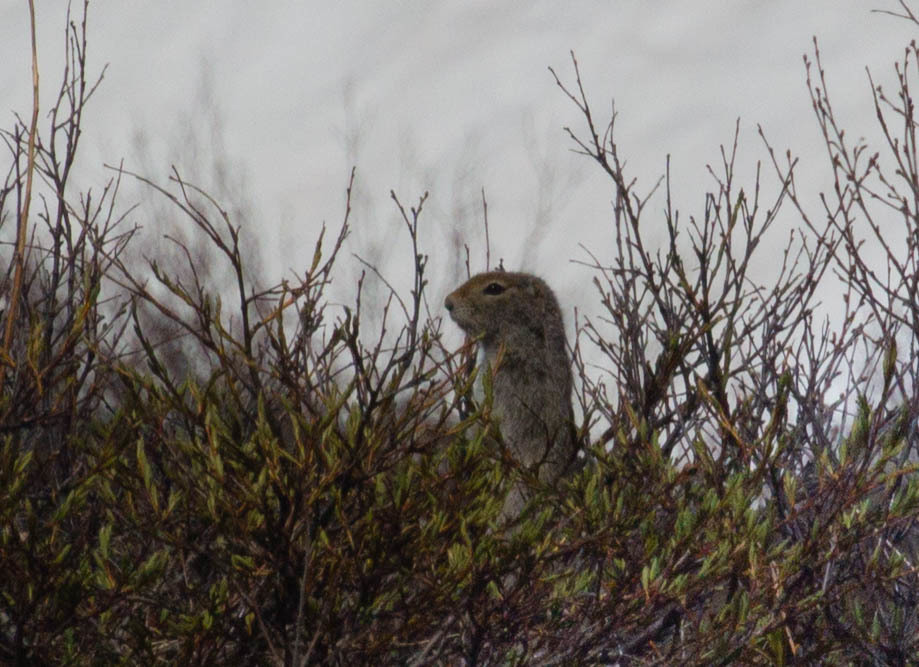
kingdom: Animalia
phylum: Chordata
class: Mammalia
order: Rodentia
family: Sciuridae
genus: Urocitellus
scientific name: Urocitellus parryii
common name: Arctic ground squirrel
